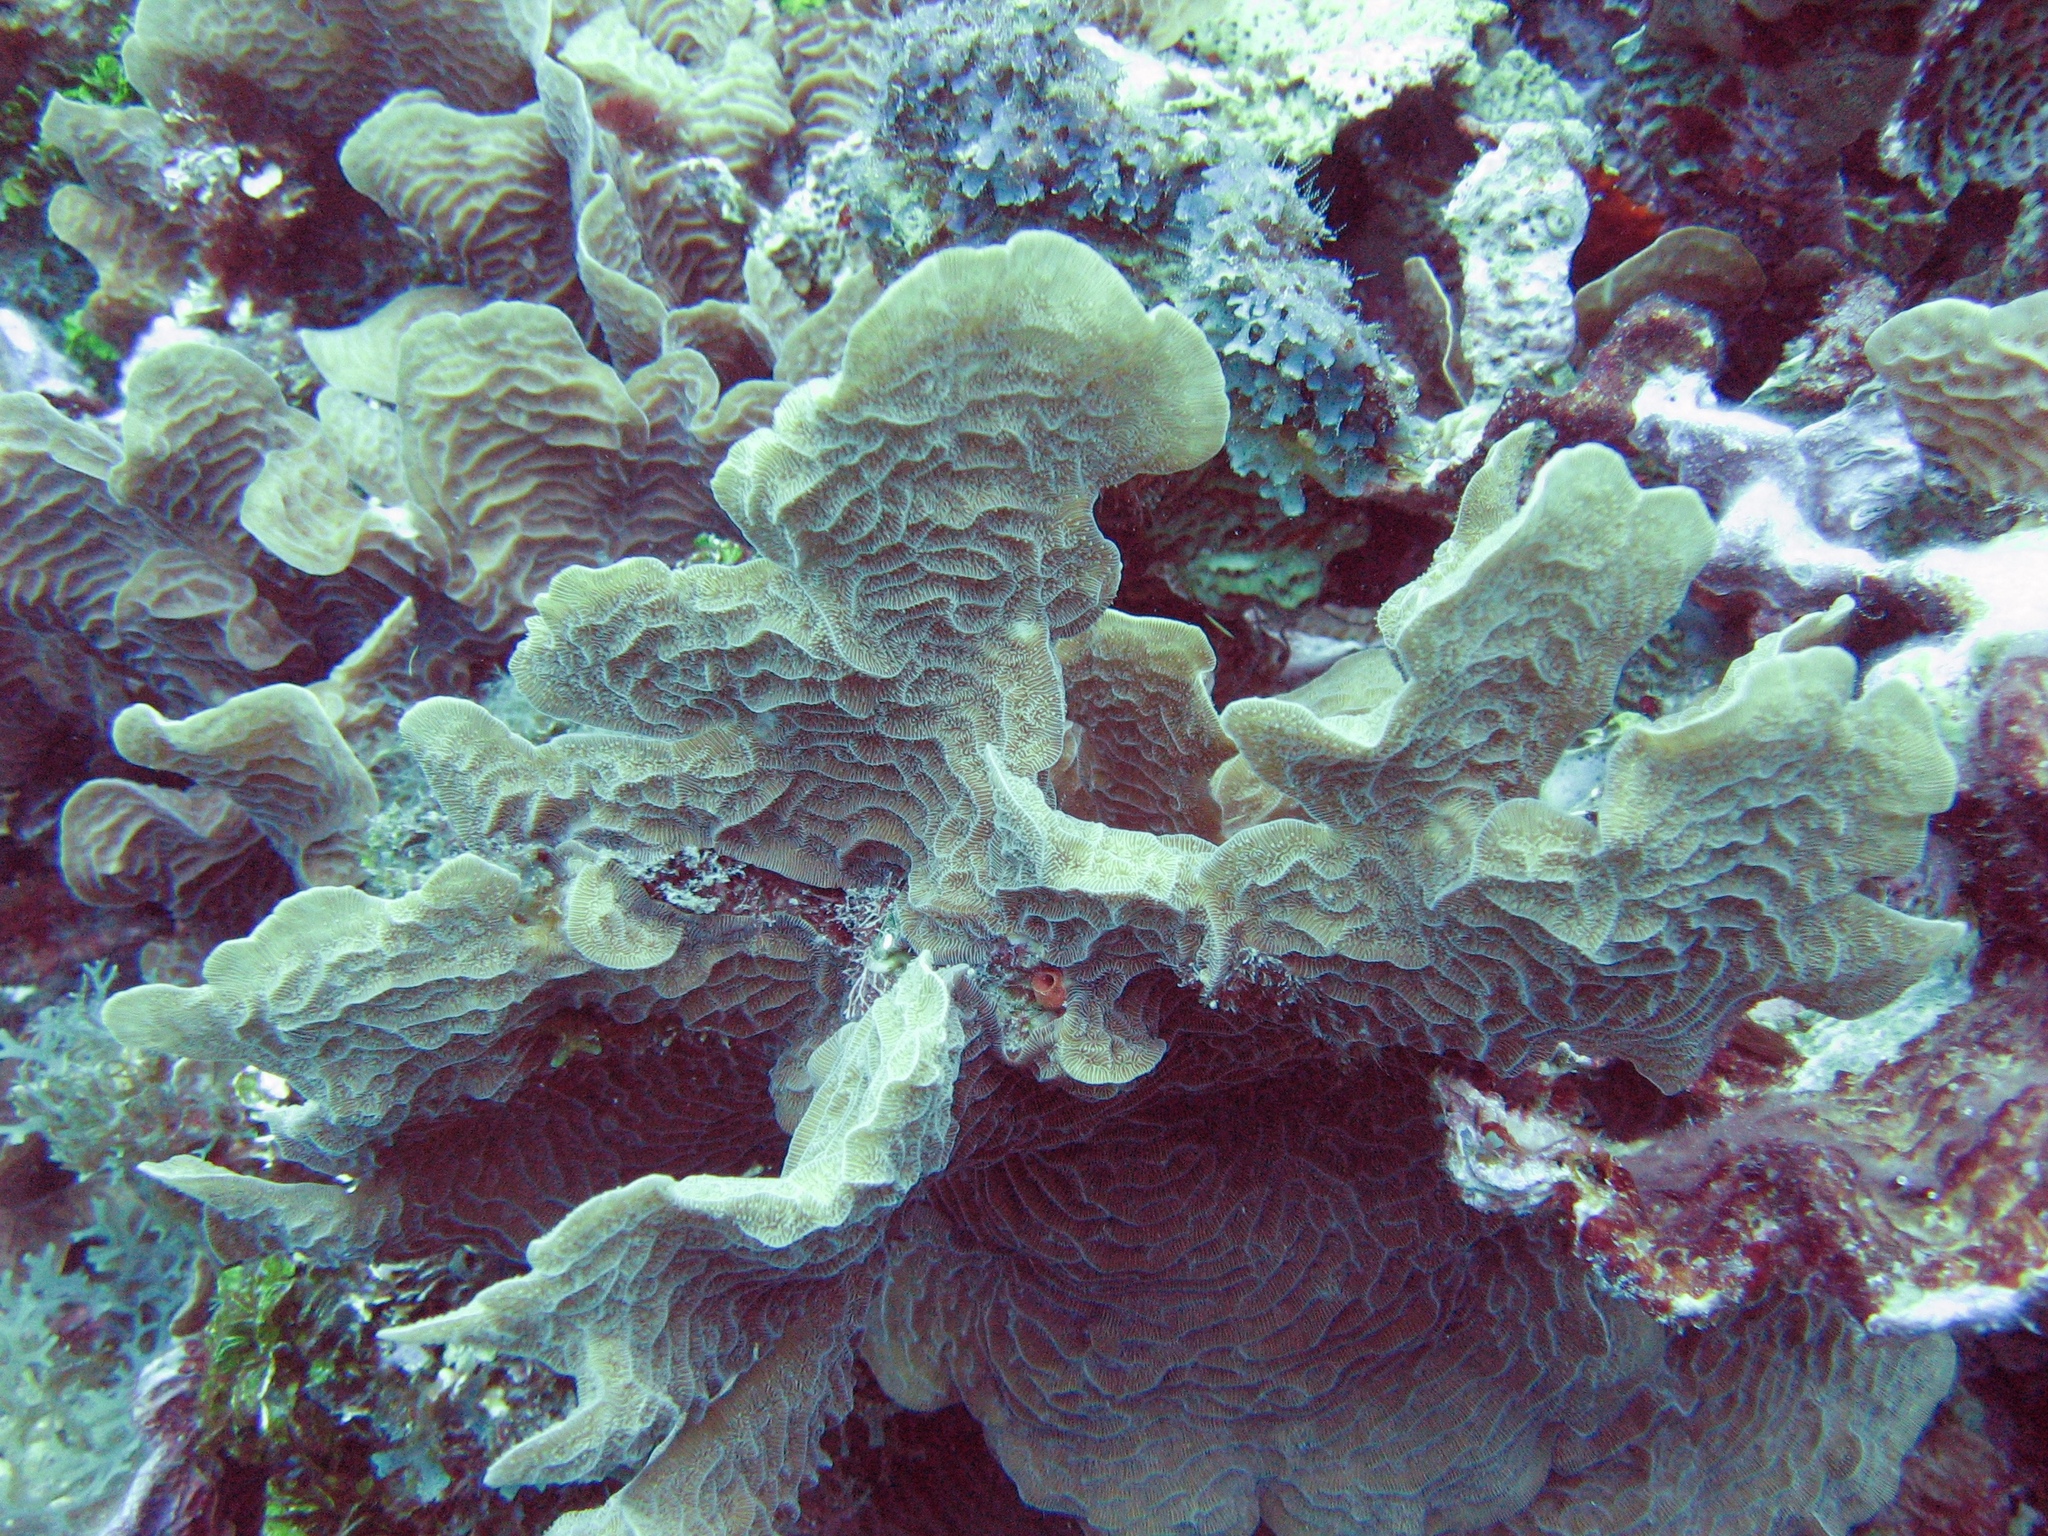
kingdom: Animalia
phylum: Cnidaria
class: Anthozoa
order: Scleractinia
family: Agariciidae
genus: Agaricia
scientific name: Agaricia tenuifolia
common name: Thin leaf lettuce coral
